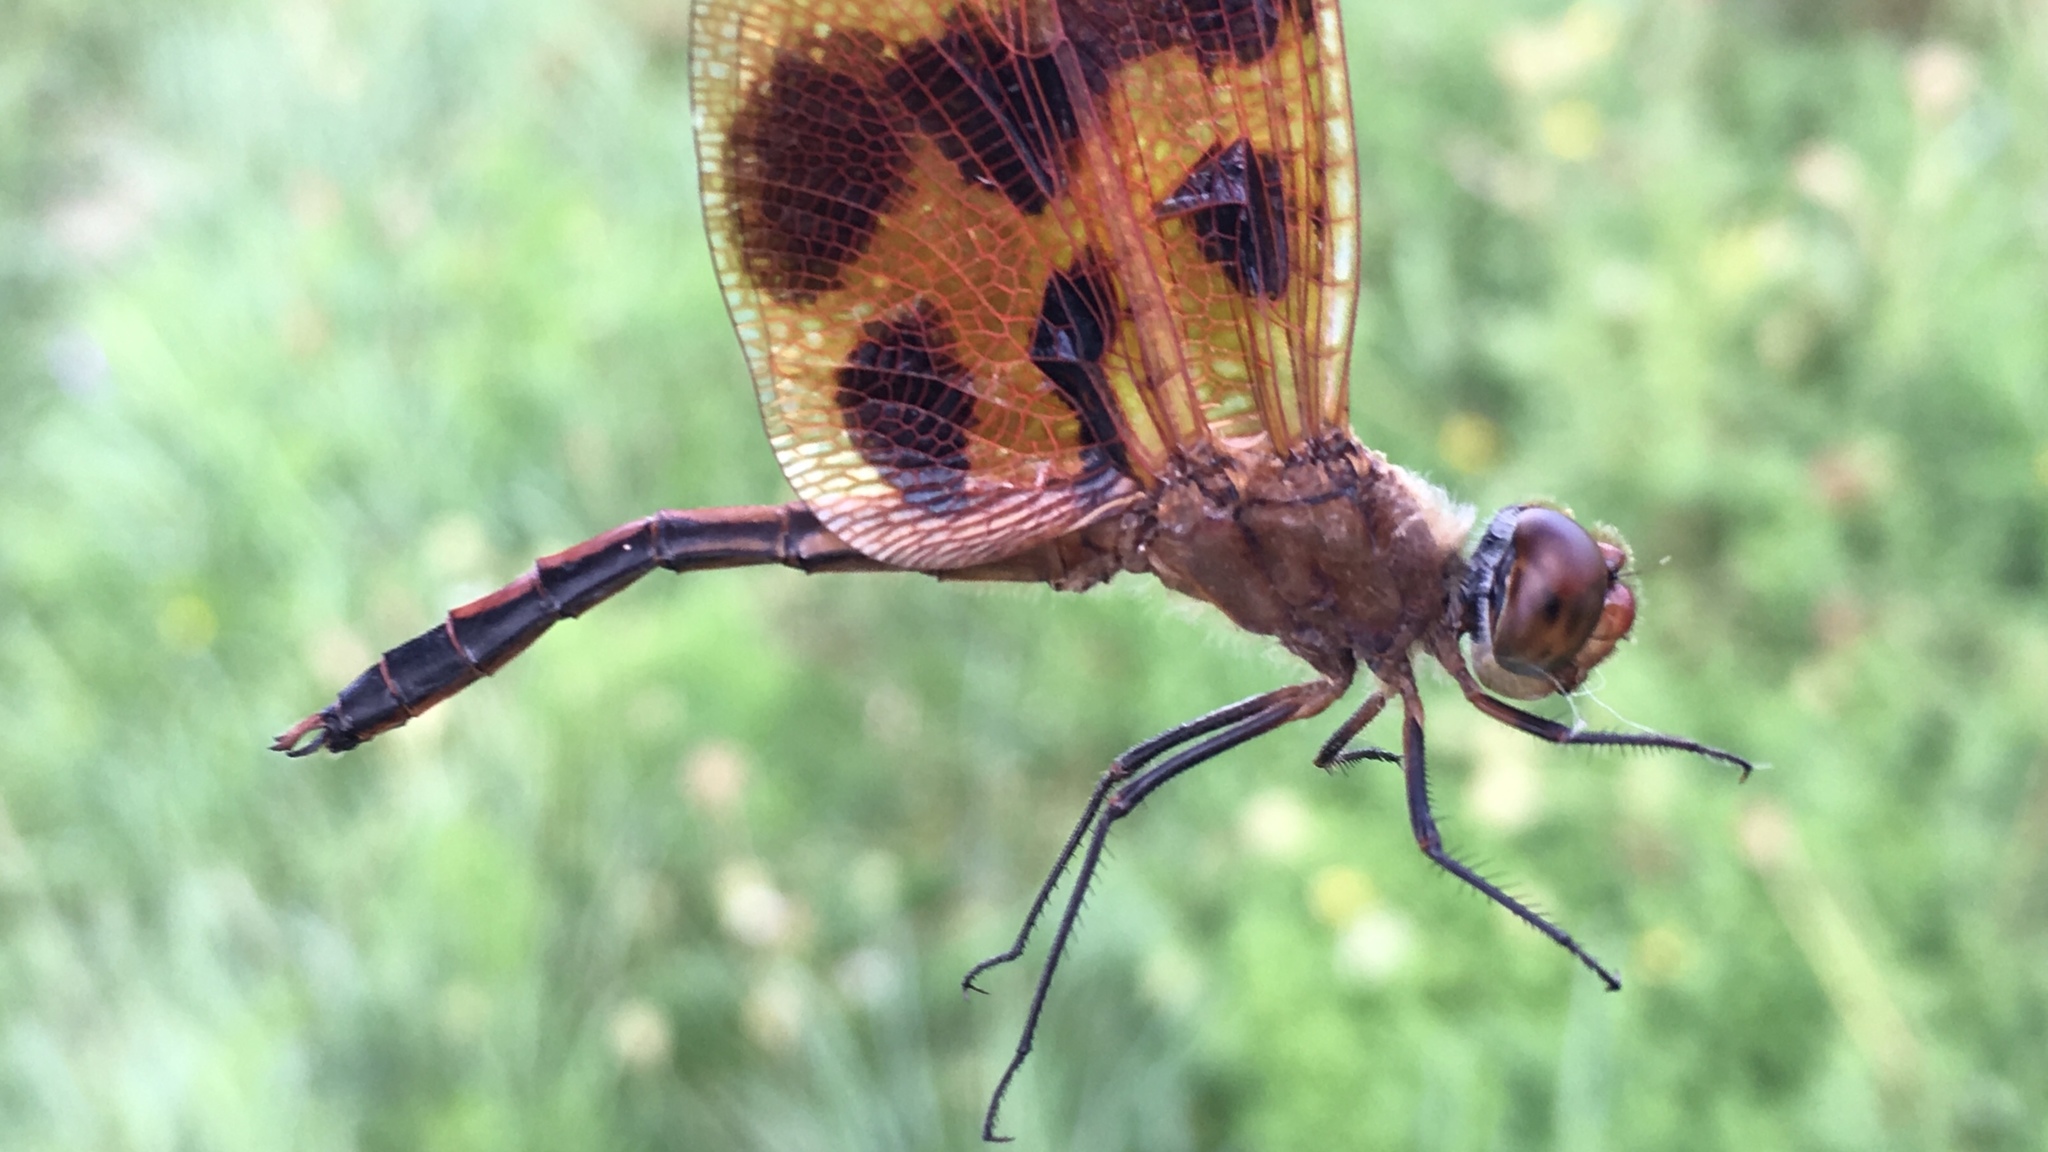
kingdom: Animalia
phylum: Arthropoda
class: Insecta
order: Odonata
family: Libellulidae
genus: Celithemis
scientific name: Celithemis eponina
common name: Halloween pennant
